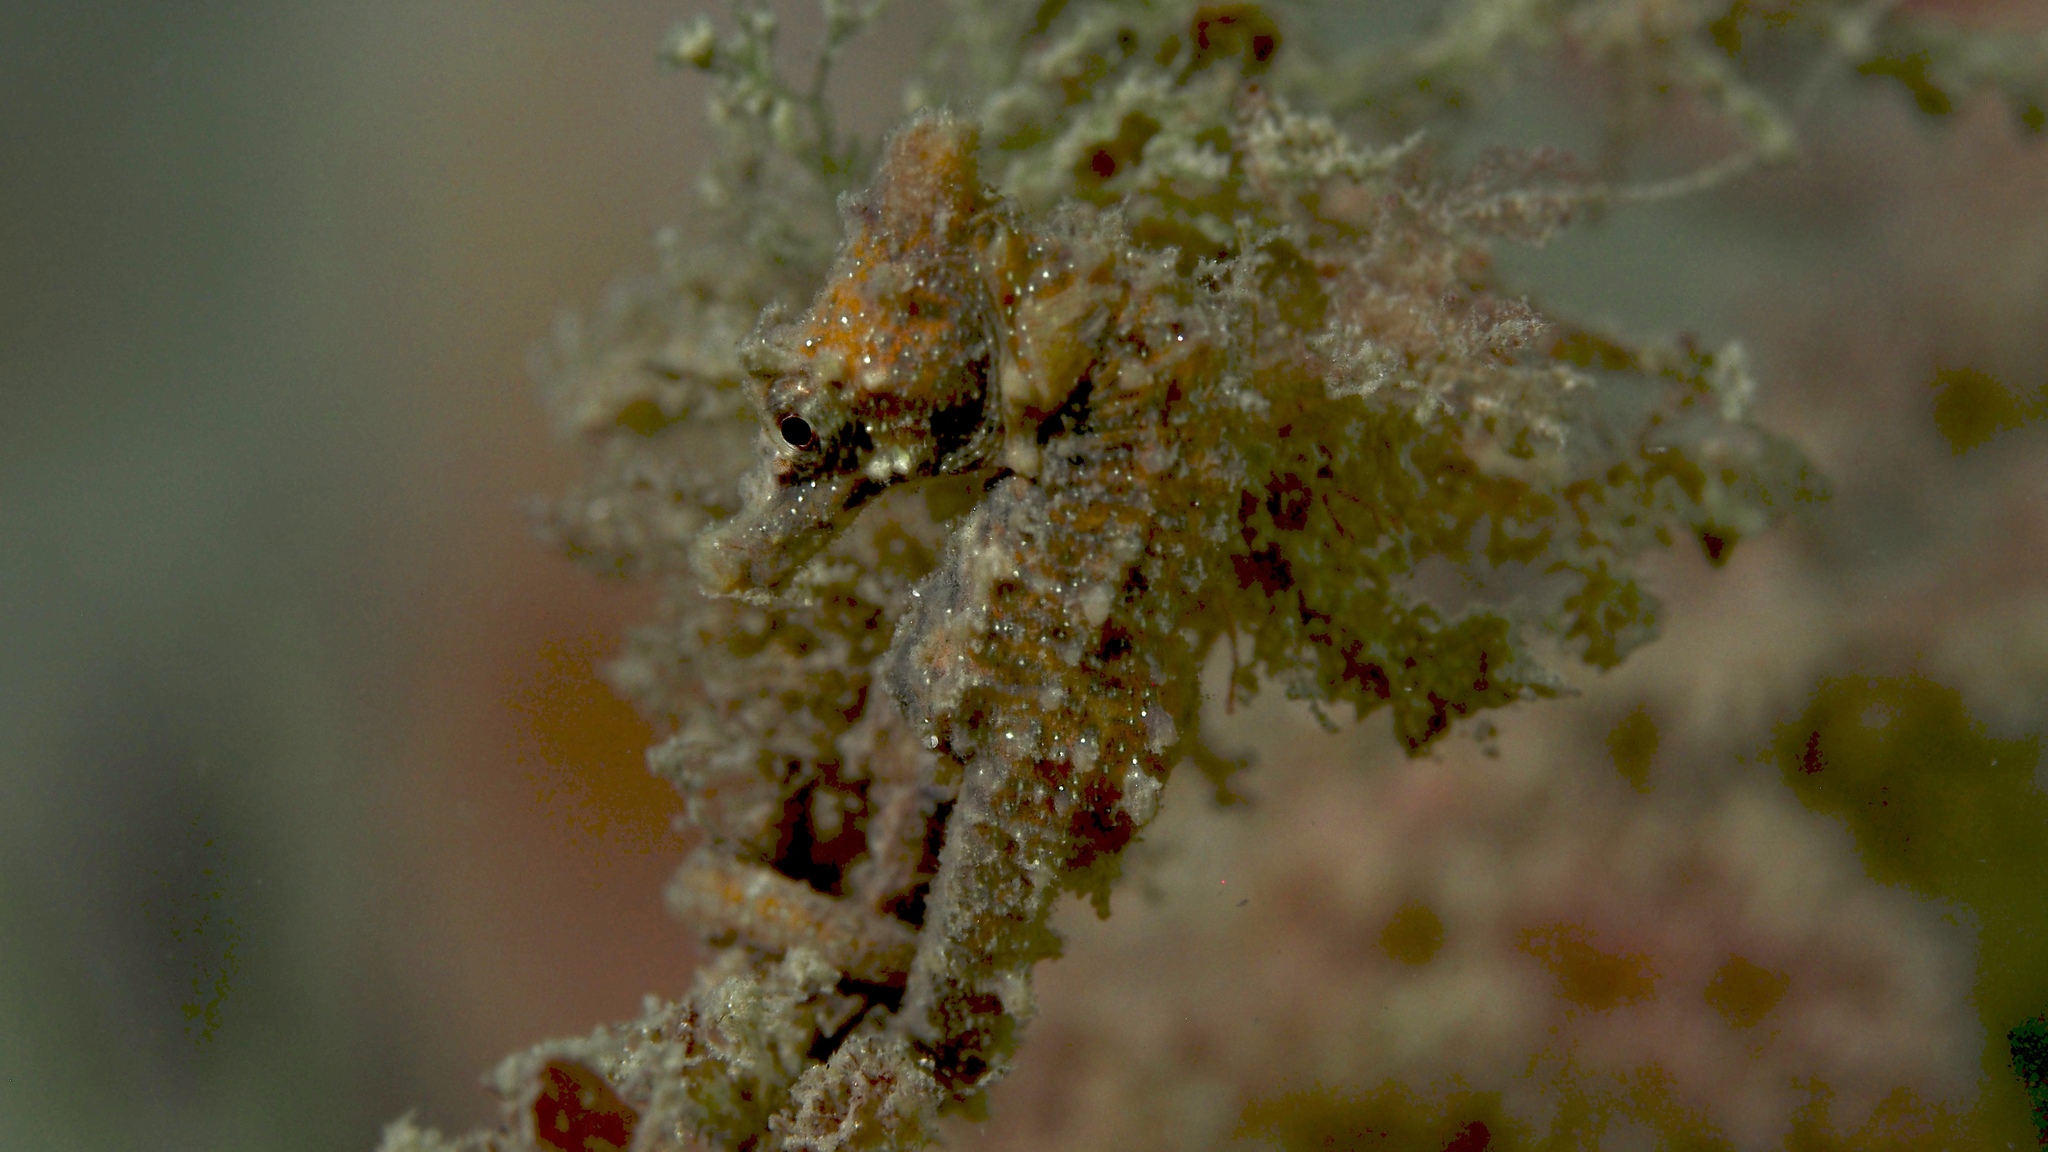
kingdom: Animalia
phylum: Chordata
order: Syngnathiformes
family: Syngnathidae
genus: Hippocampus
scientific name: Hippocampus breviceps
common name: Knobby seahorse
